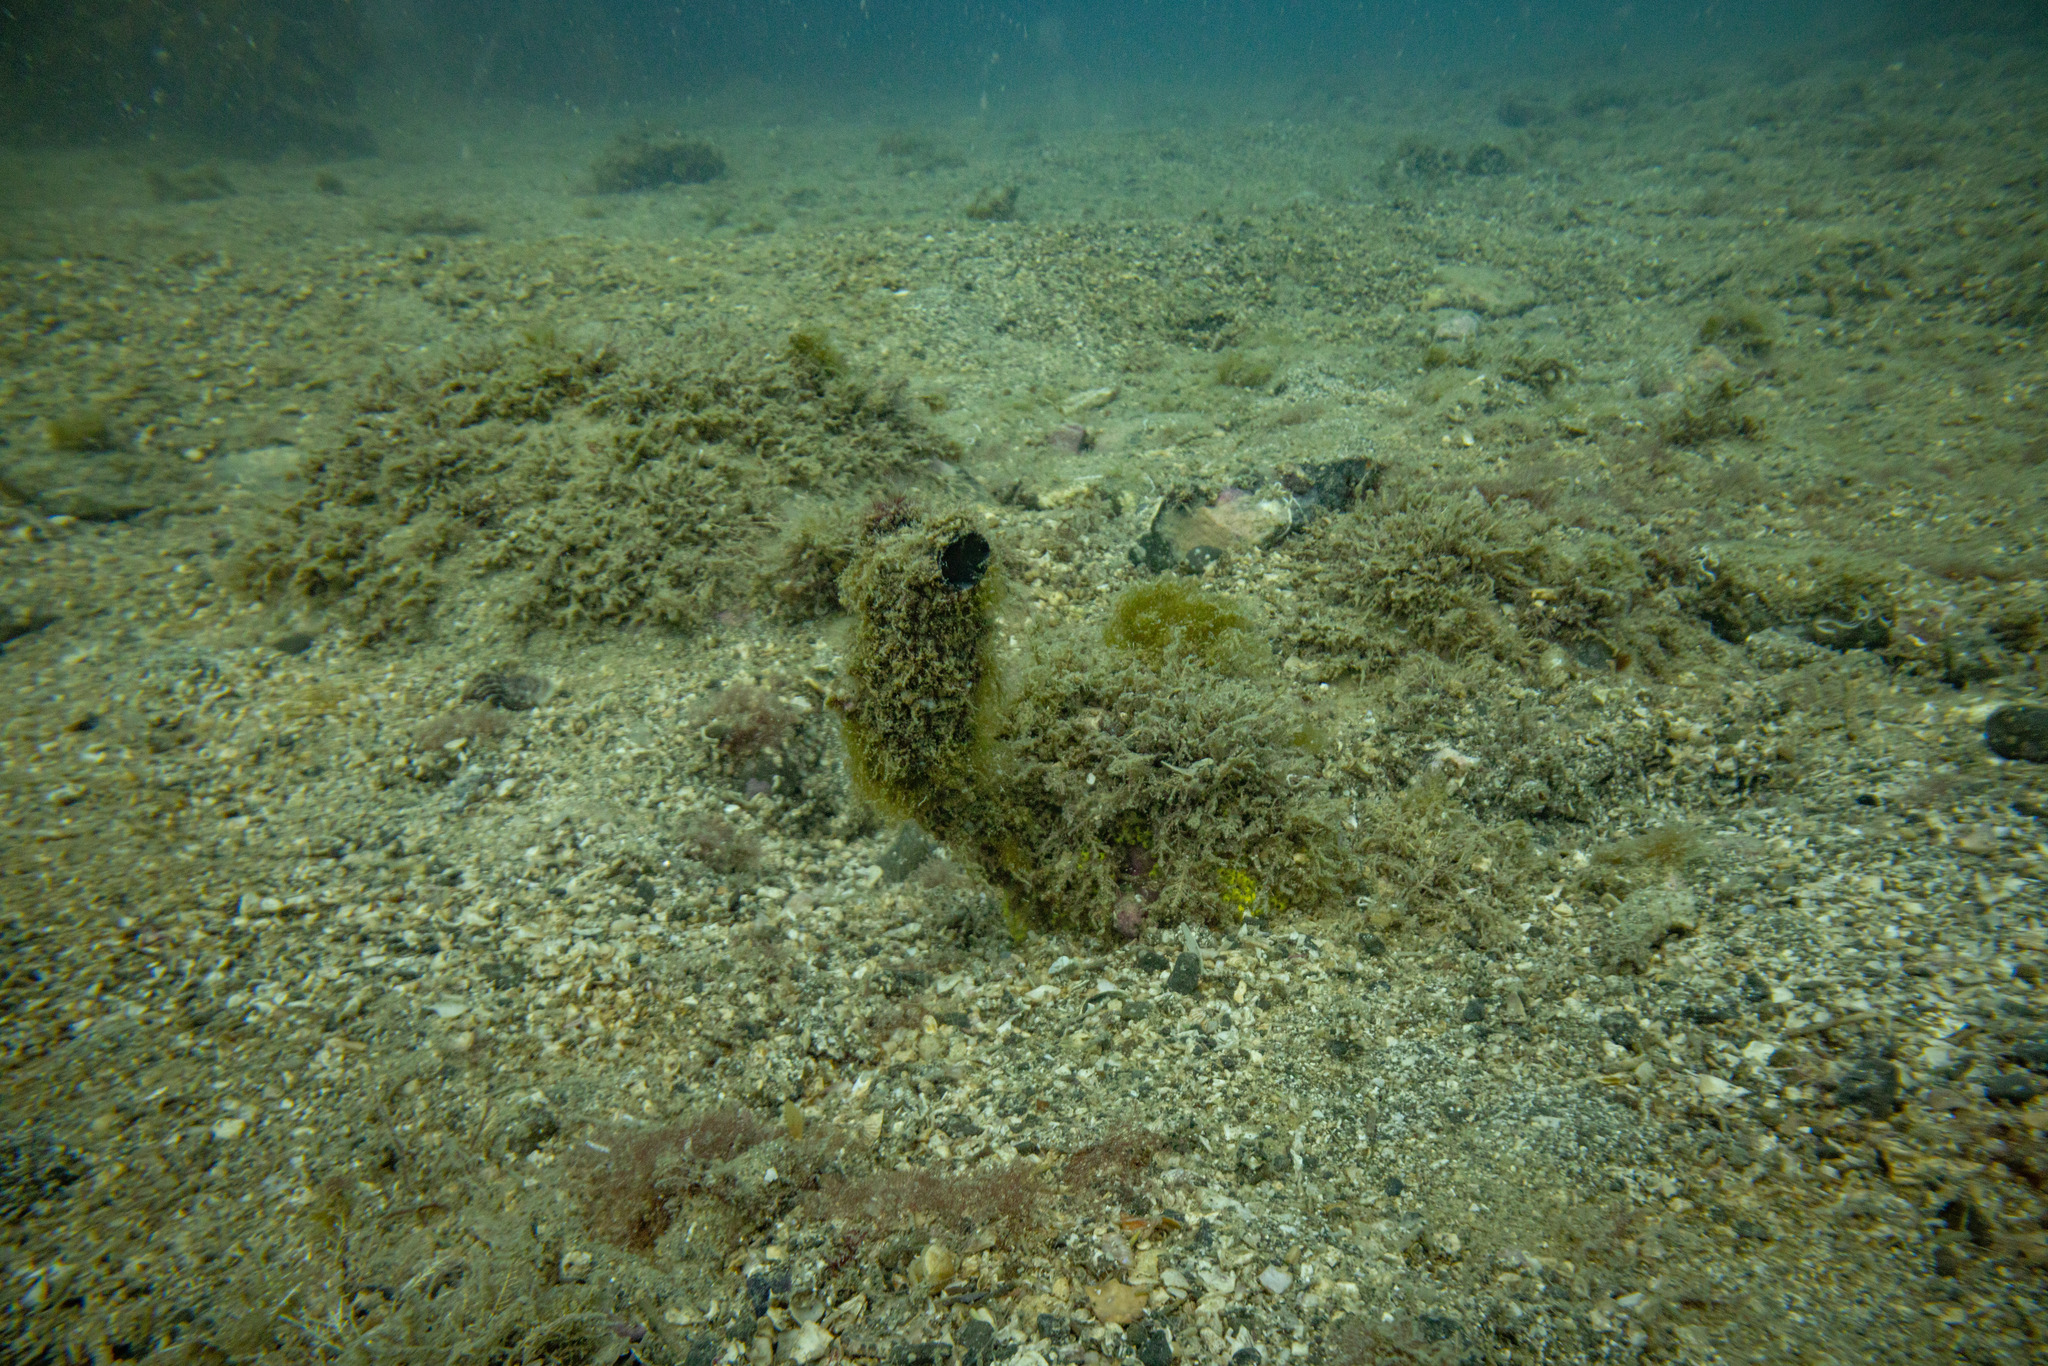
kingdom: Animalia
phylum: Chordata
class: Ascidiacea
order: Stolidobranchia
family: Styelidae
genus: Styela
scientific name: Styela clava
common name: Leathery sea squirt
